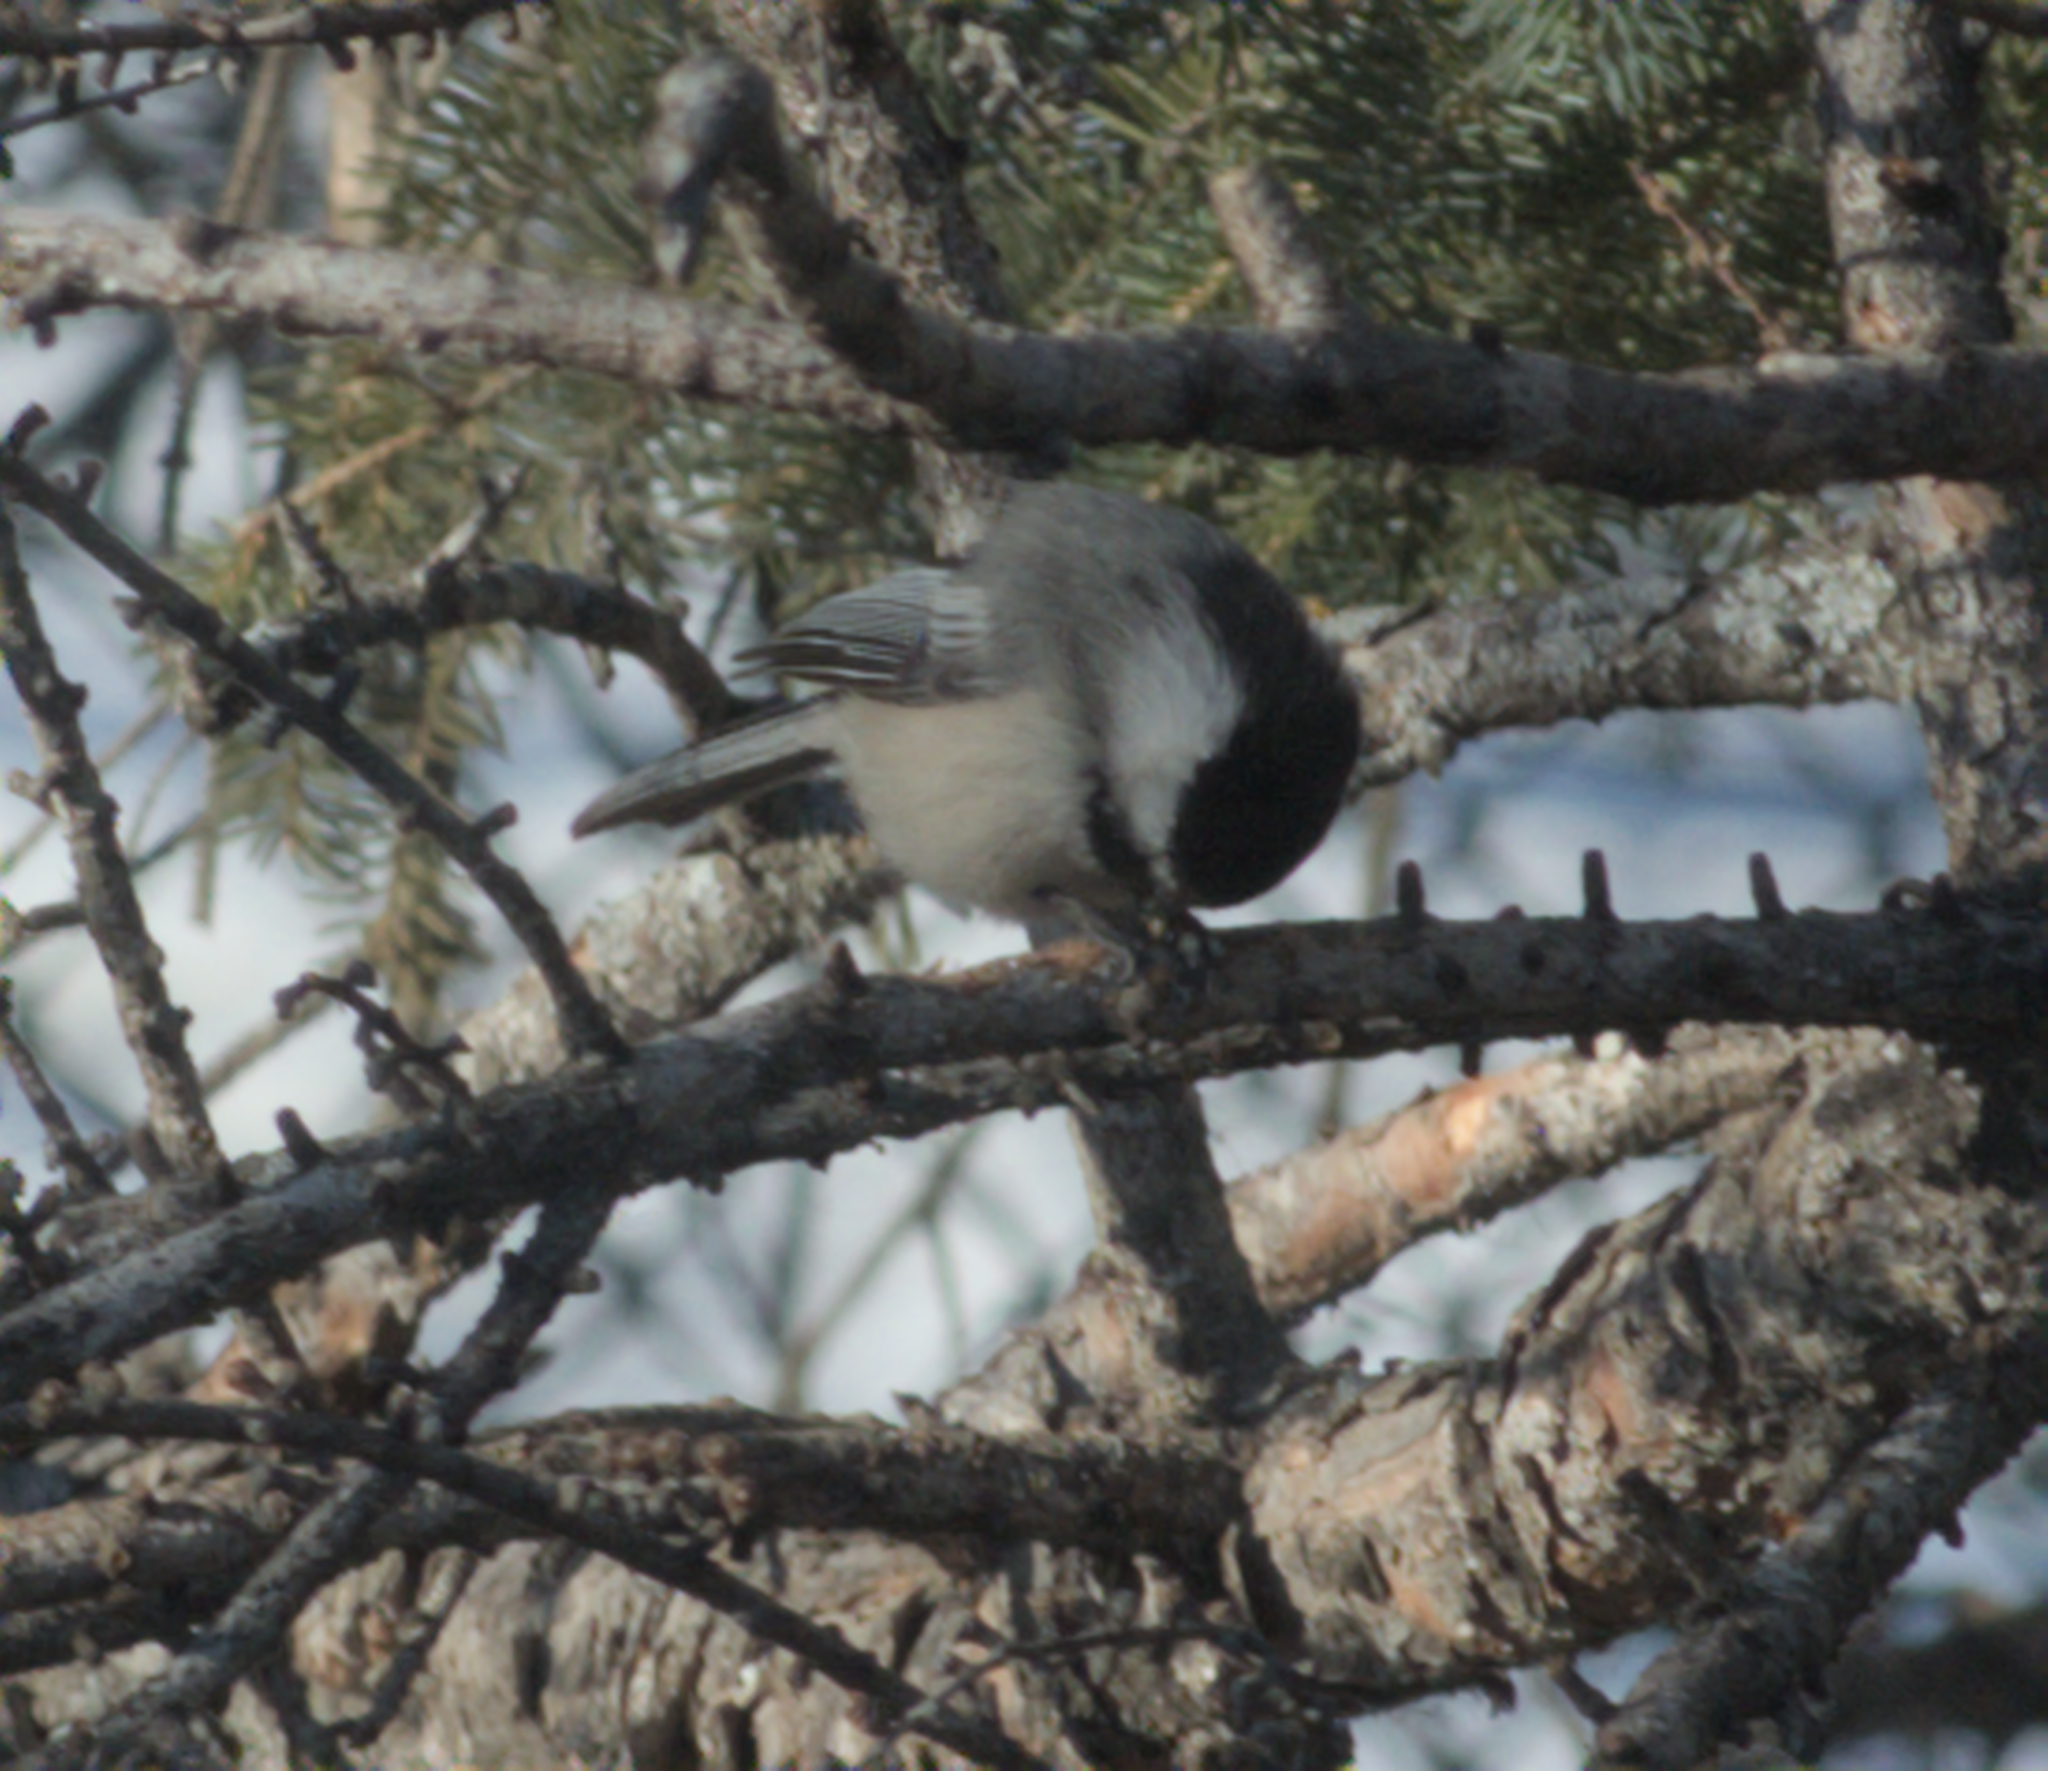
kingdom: Animalia
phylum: Chordata
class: Aves
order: Passeriformes
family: Paridae
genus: Poecile
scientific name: Poecile atricapillus
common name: Black-capped chickadee
